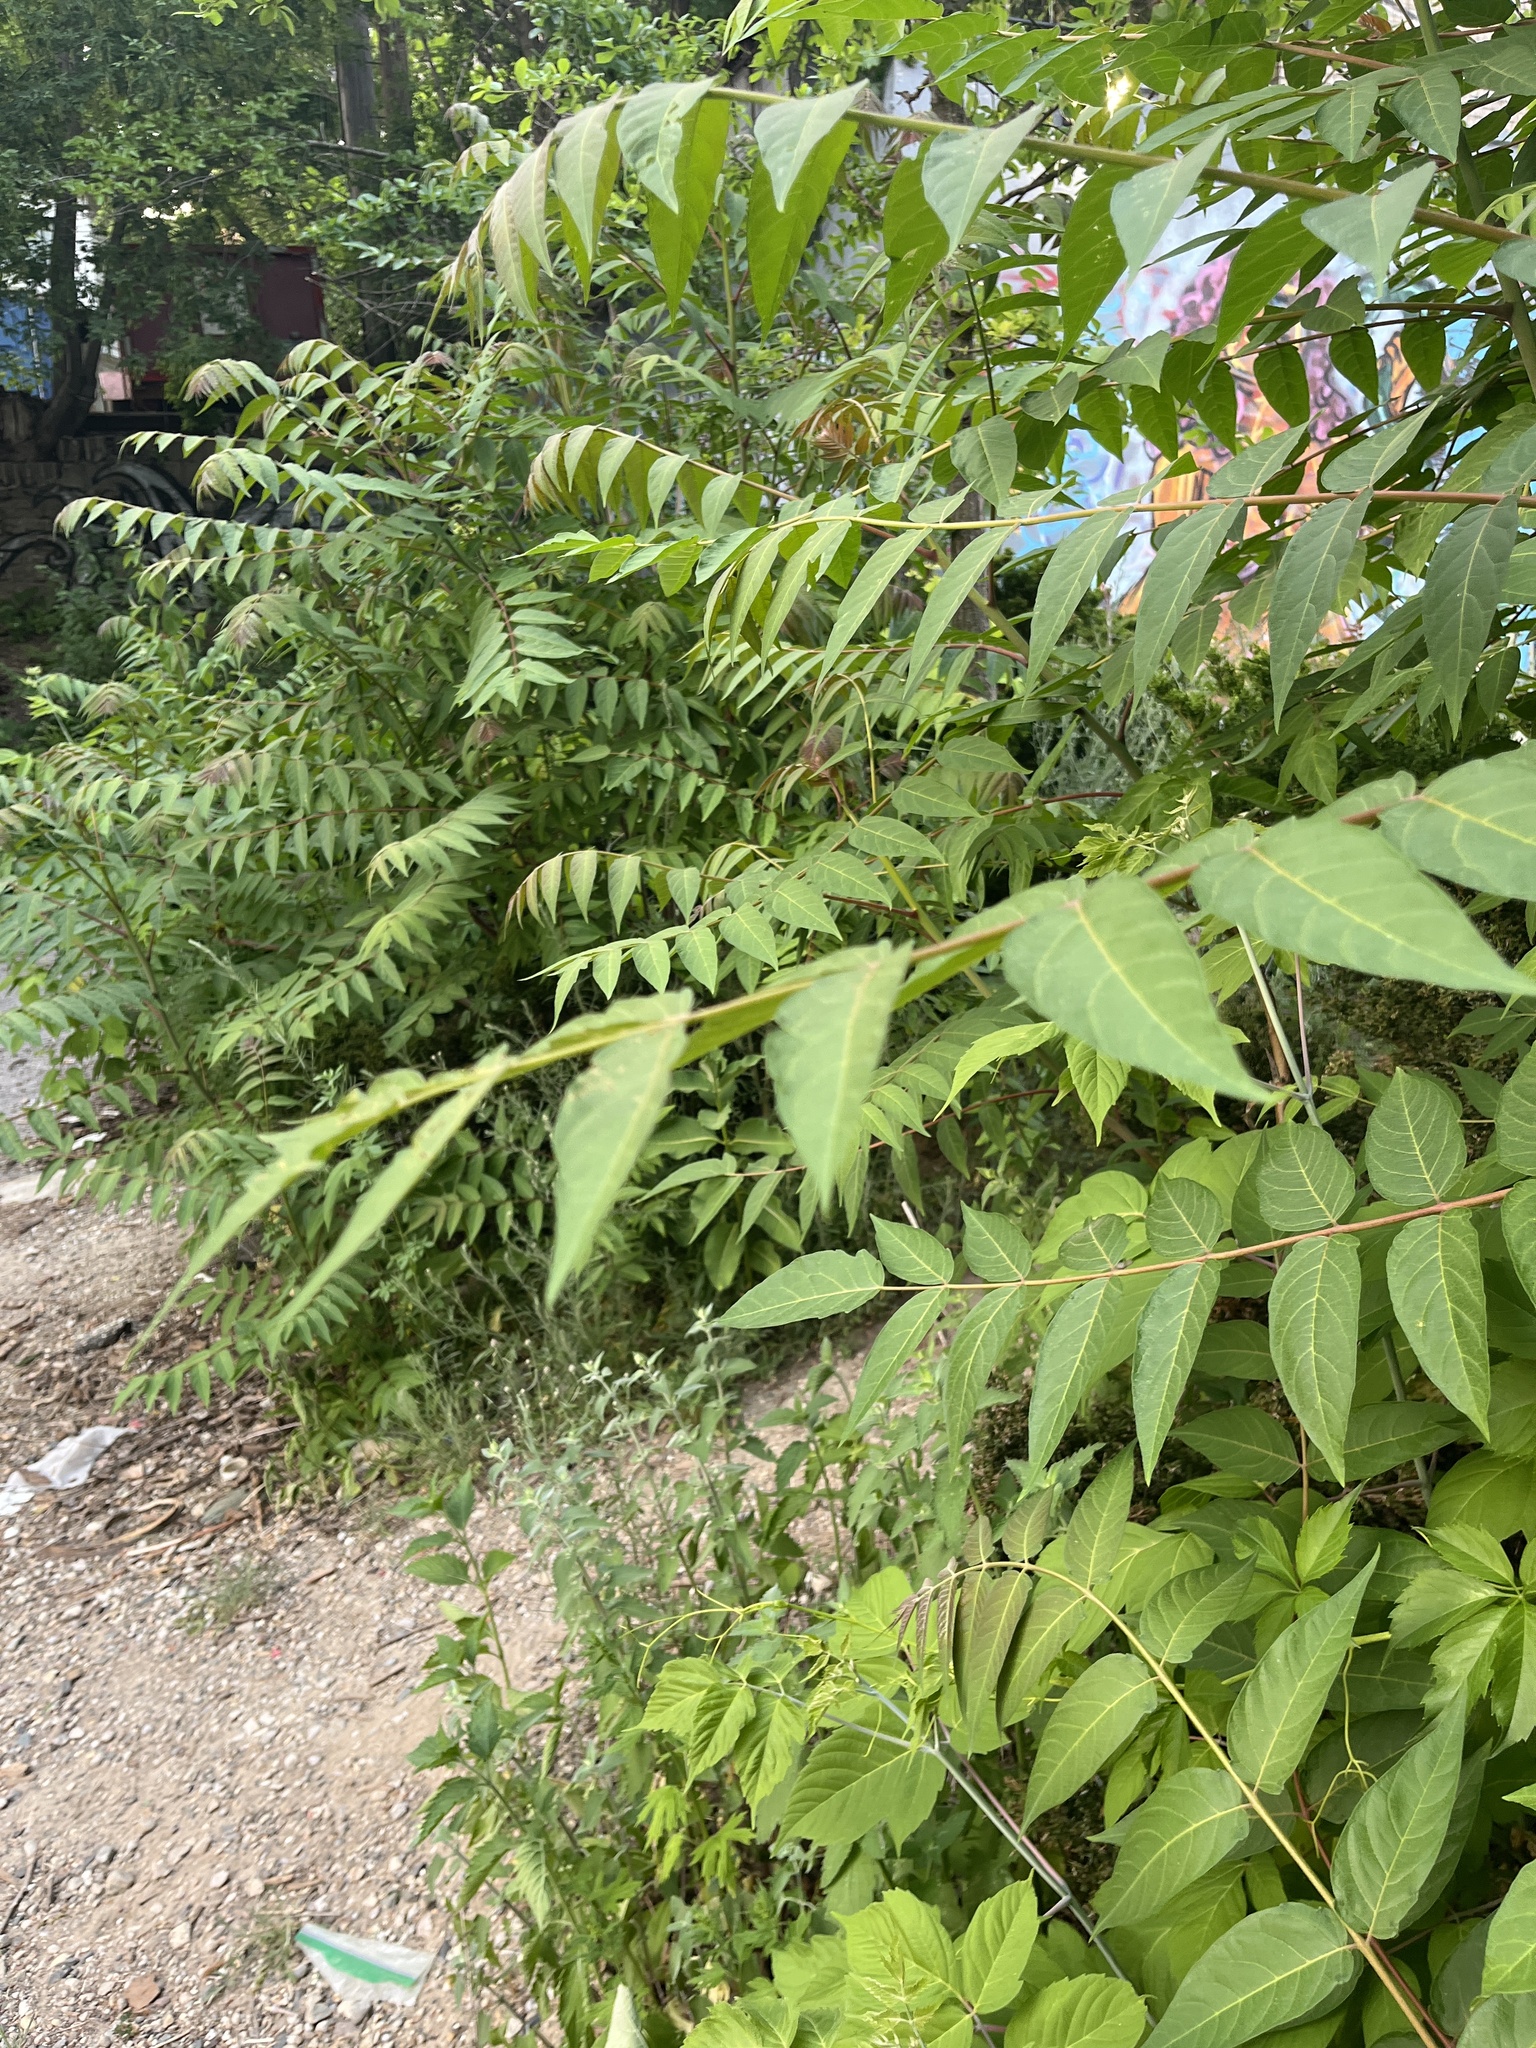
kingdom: Plantae
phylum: Tracheophyta
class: Magnoliopsida
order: Sapindales
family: Simaroubaceae
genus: Ailanthus
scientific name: Ailanthus altissima
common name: Tree-of-heaven
